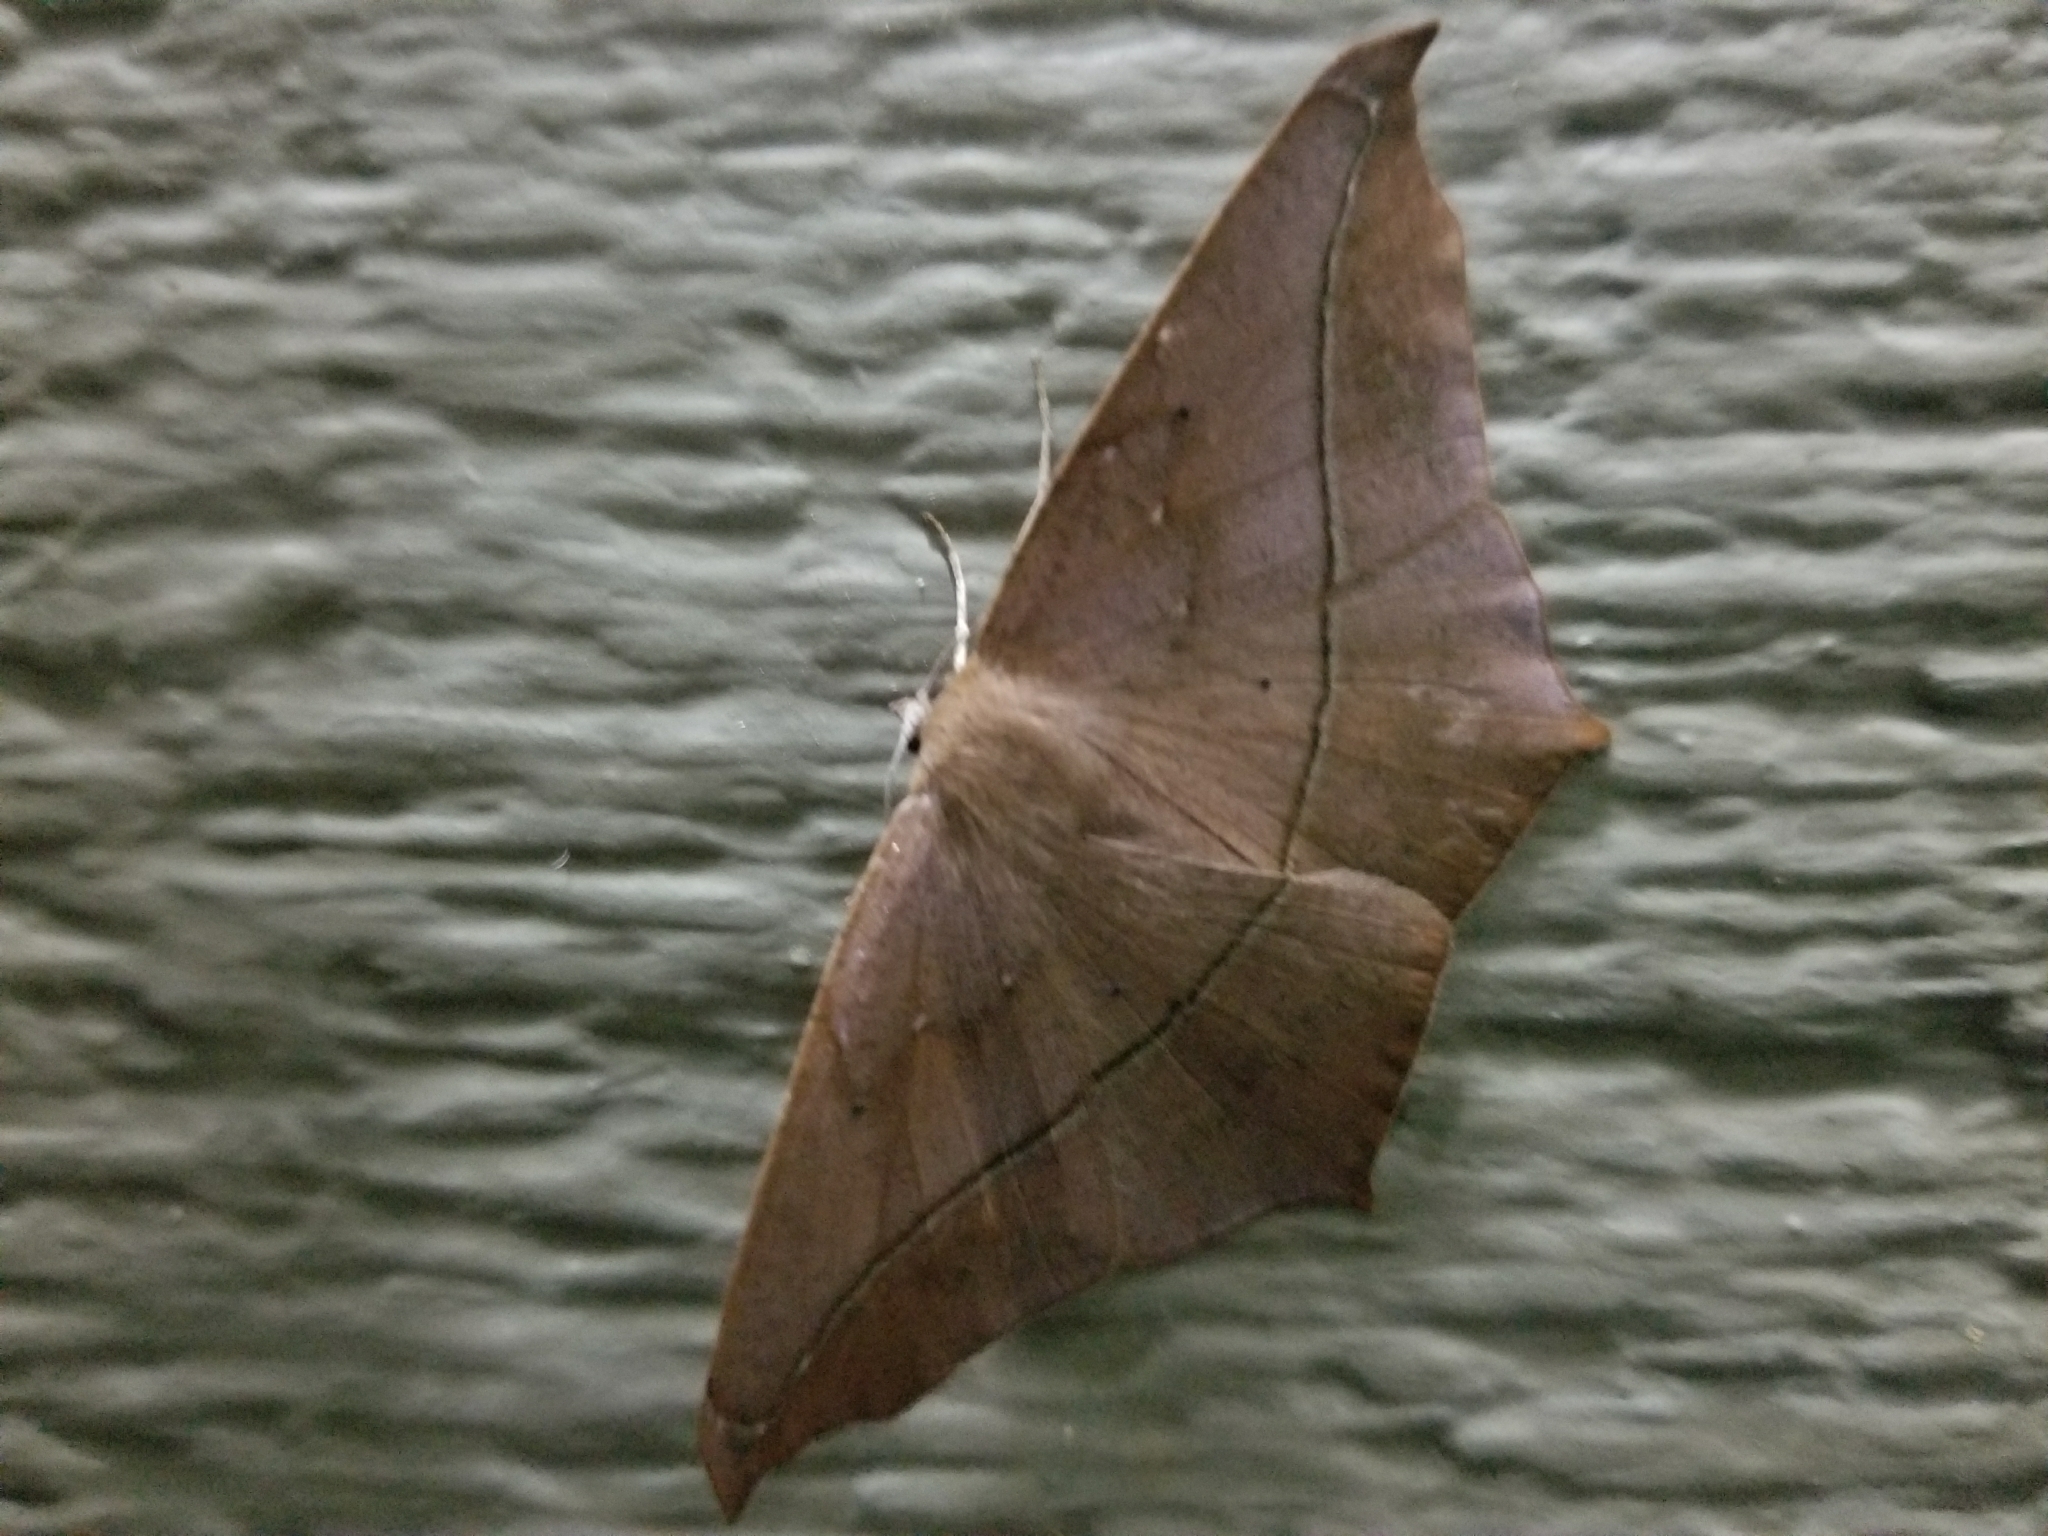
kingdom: Animalia
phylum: Arthropoda
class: Insecta
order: Lepidoptera
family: Geometridae
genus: Prochoerodes
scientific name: Prochoerodes lineola
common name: Large maple spanworm
